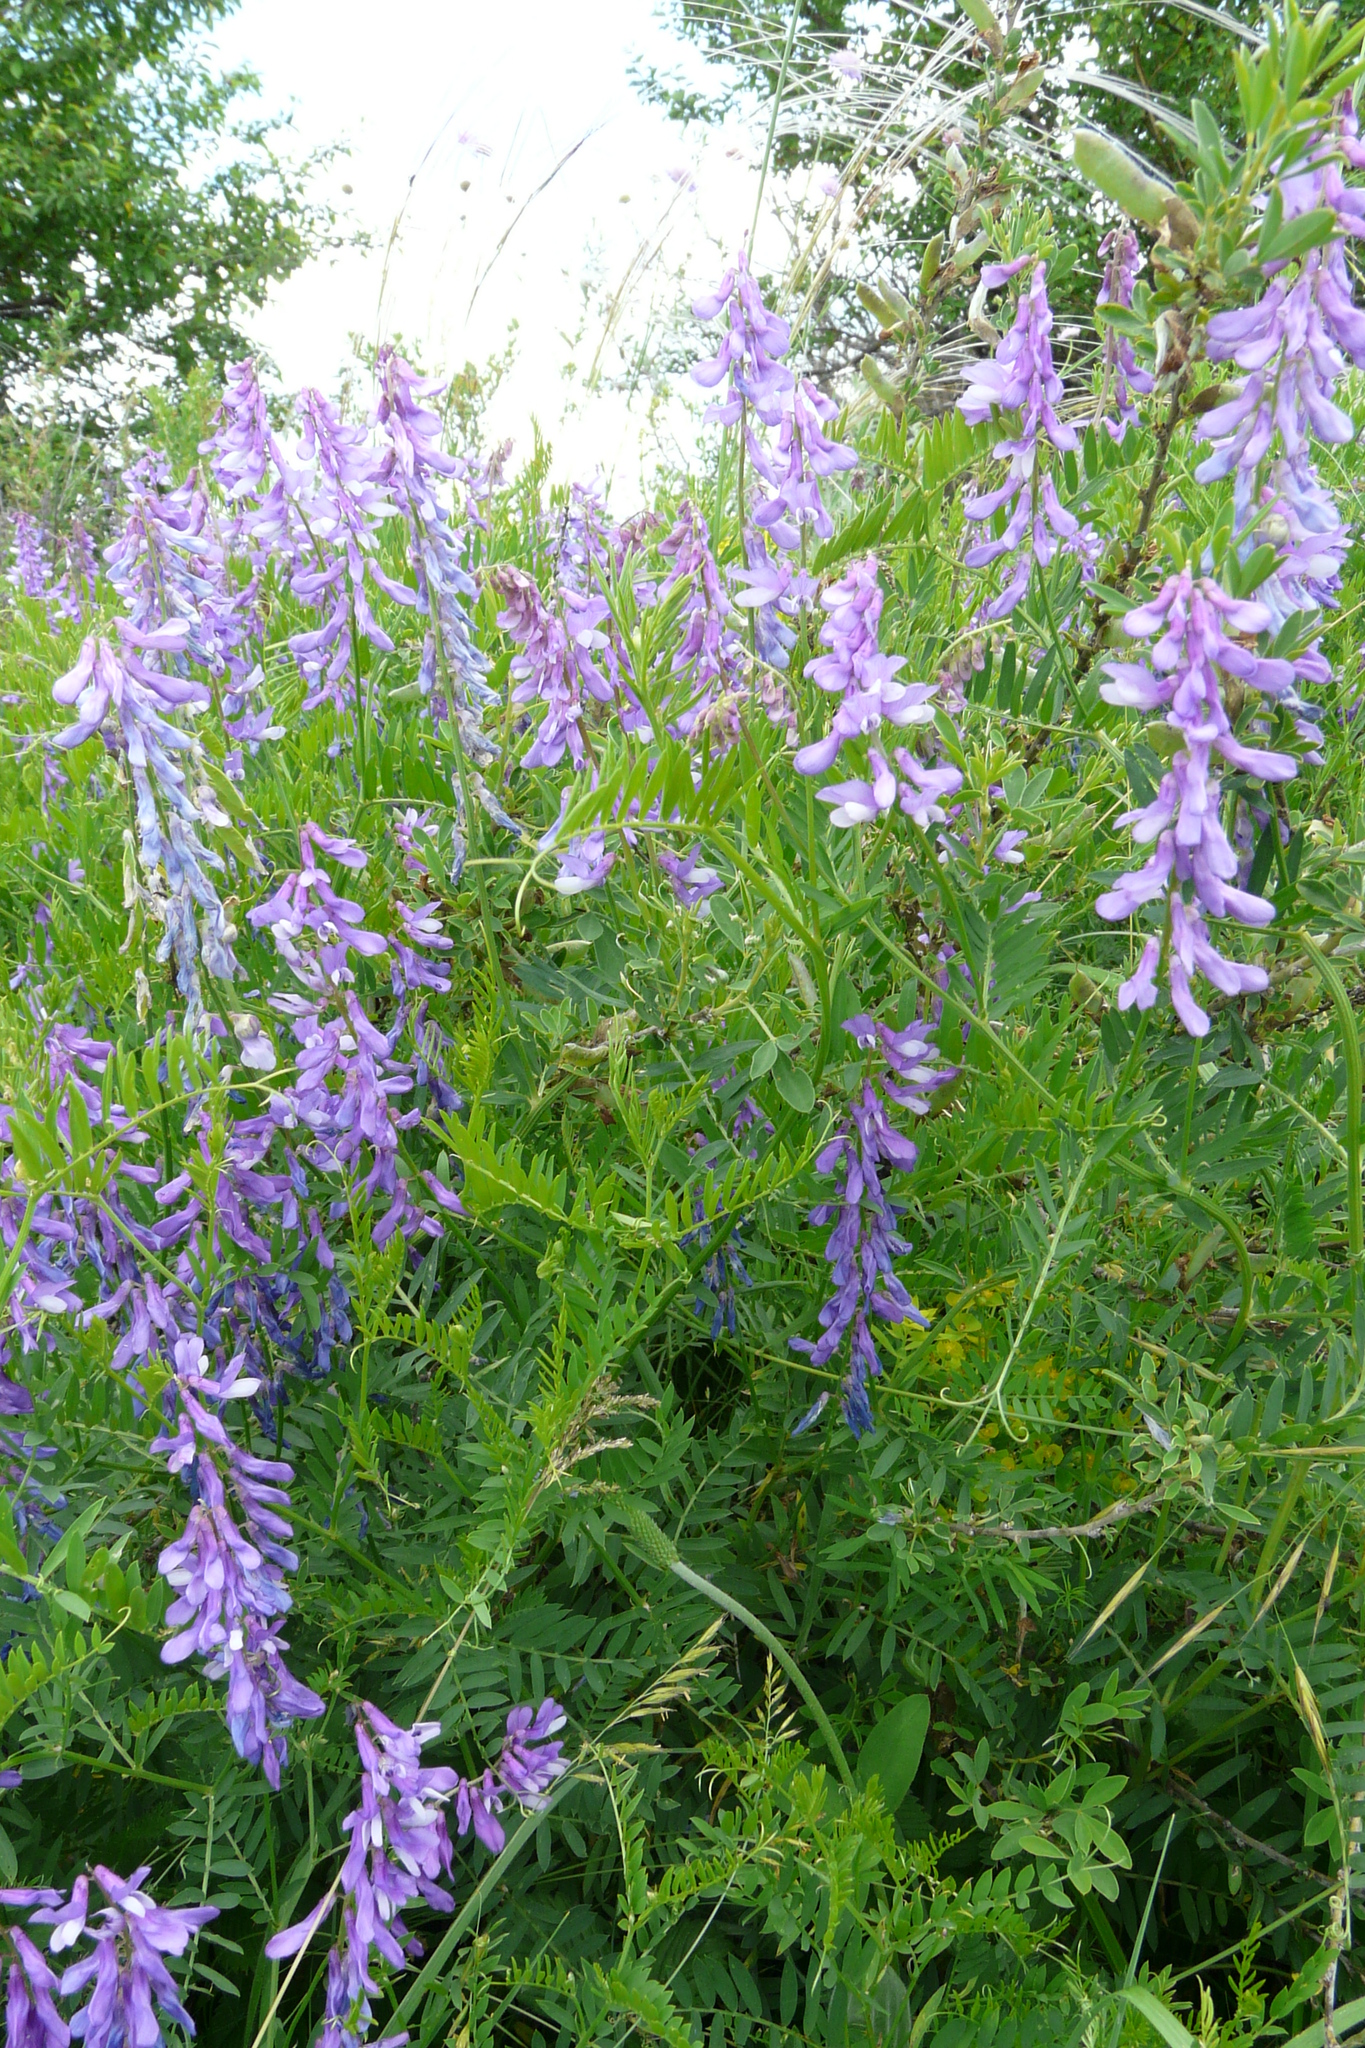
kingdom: Plantae
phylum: Tracheophyta
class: Magnoliopsida
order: Fabales
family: Fabaceae
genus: Vicia
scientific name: Vicia tenuifolia
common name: Fine-leaved vetch
